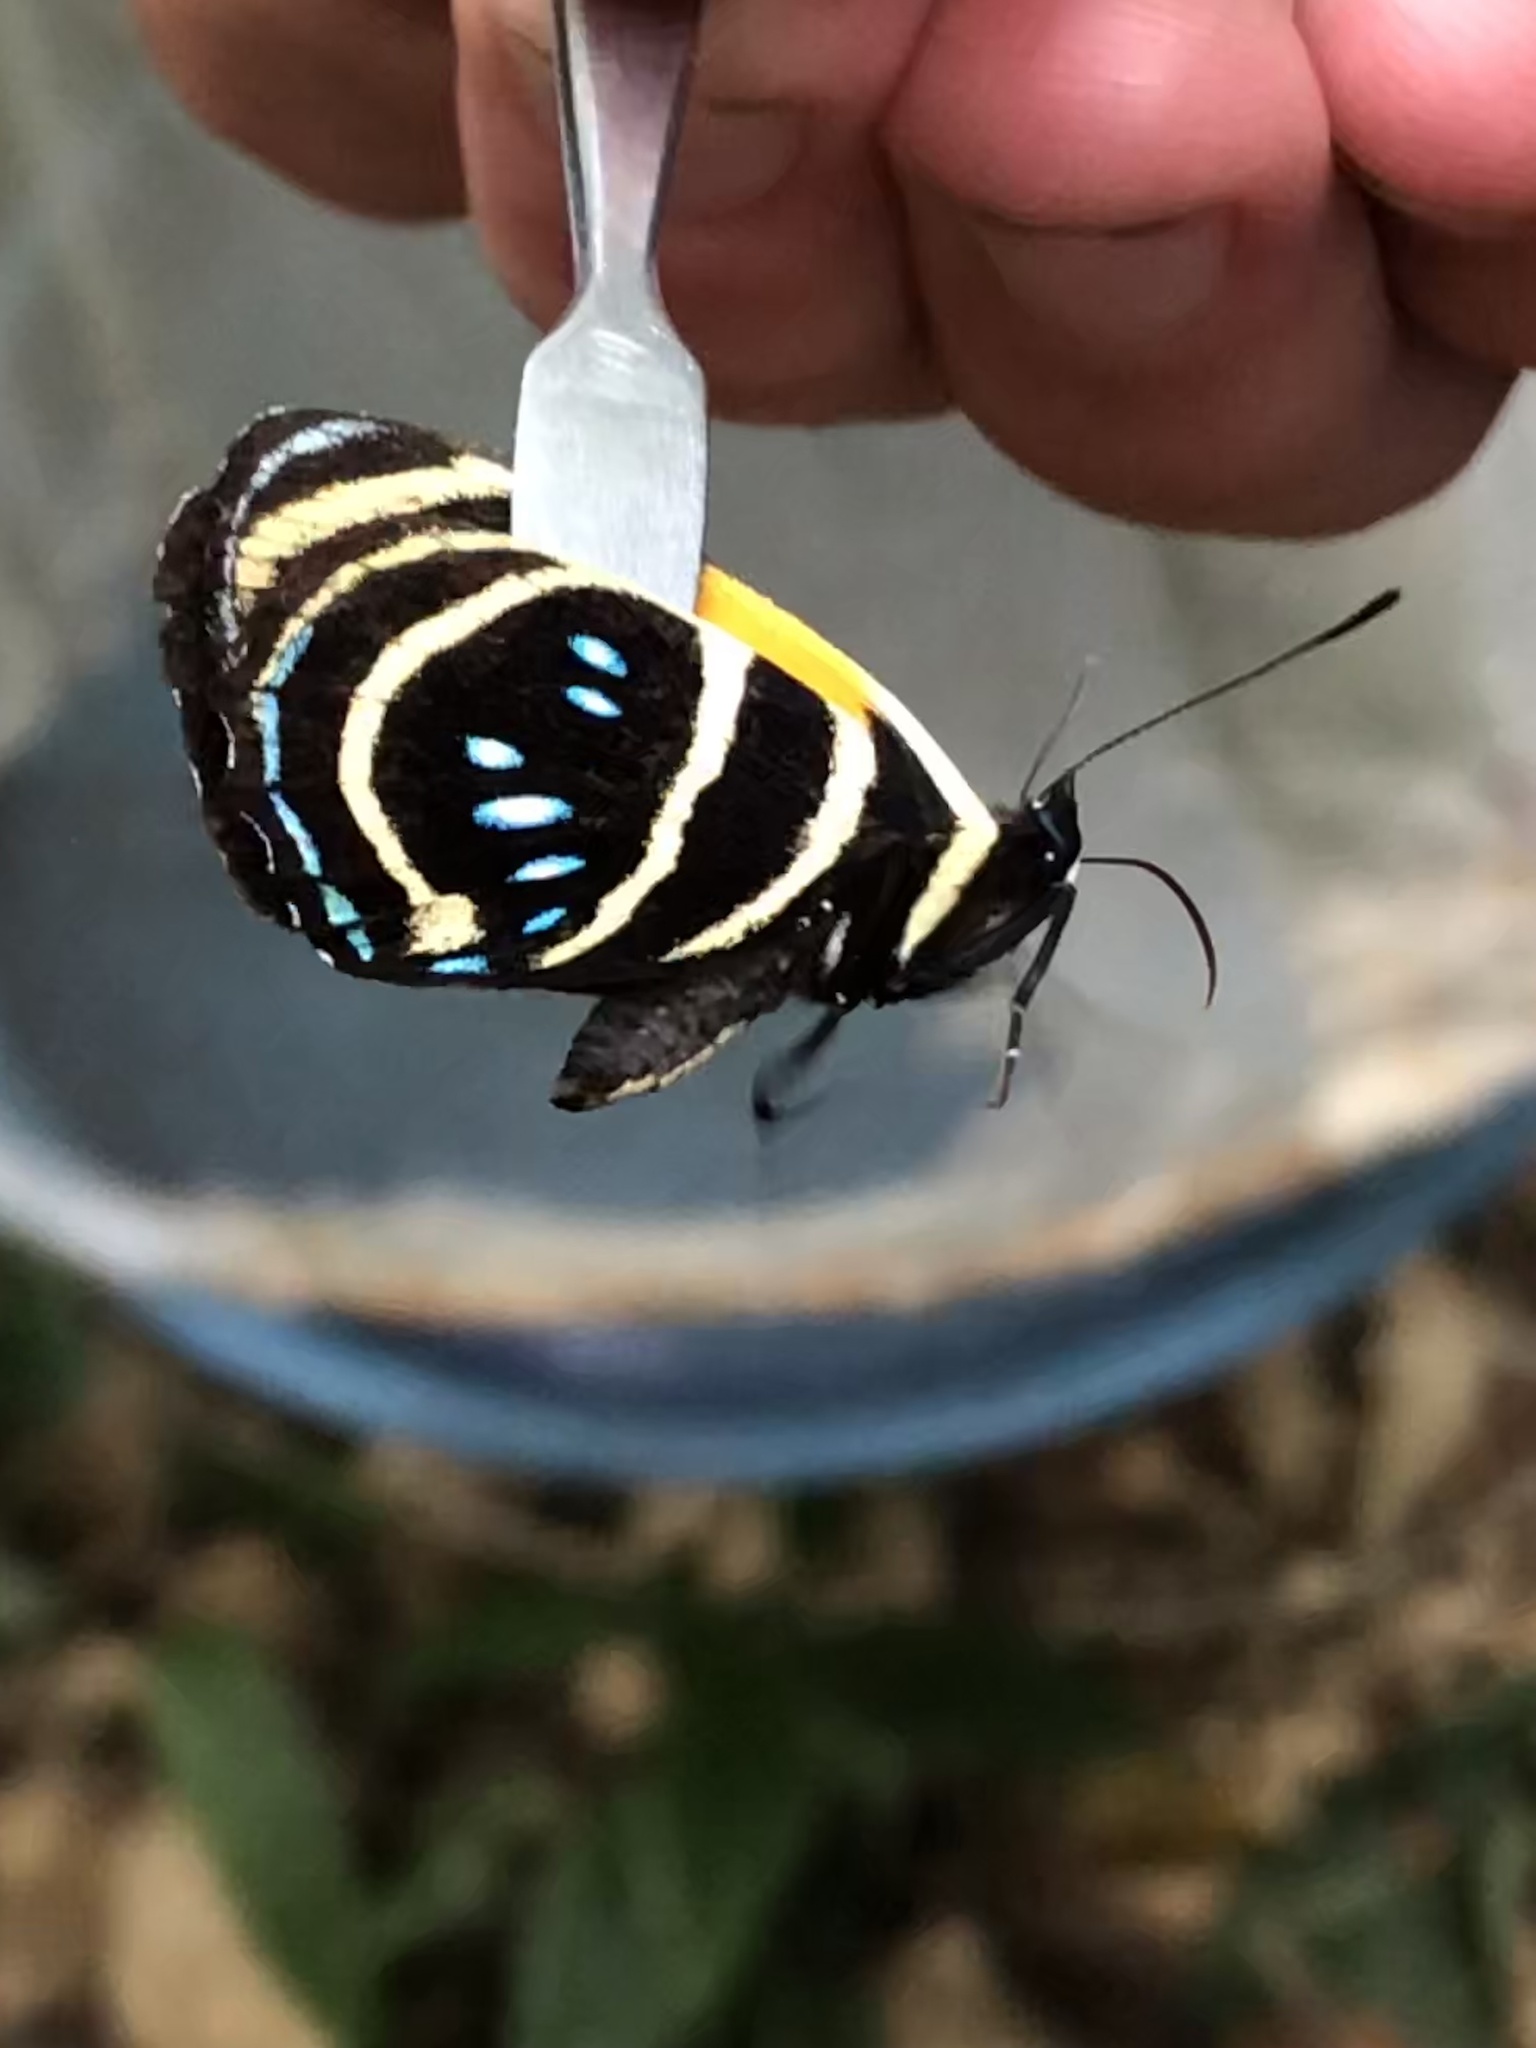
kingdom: Animalia
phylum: Arthropoda
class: Insecta
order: Lepidoptera
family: Nymphalidae
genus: Catagramma
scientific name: Catagramma Callicore lyca
